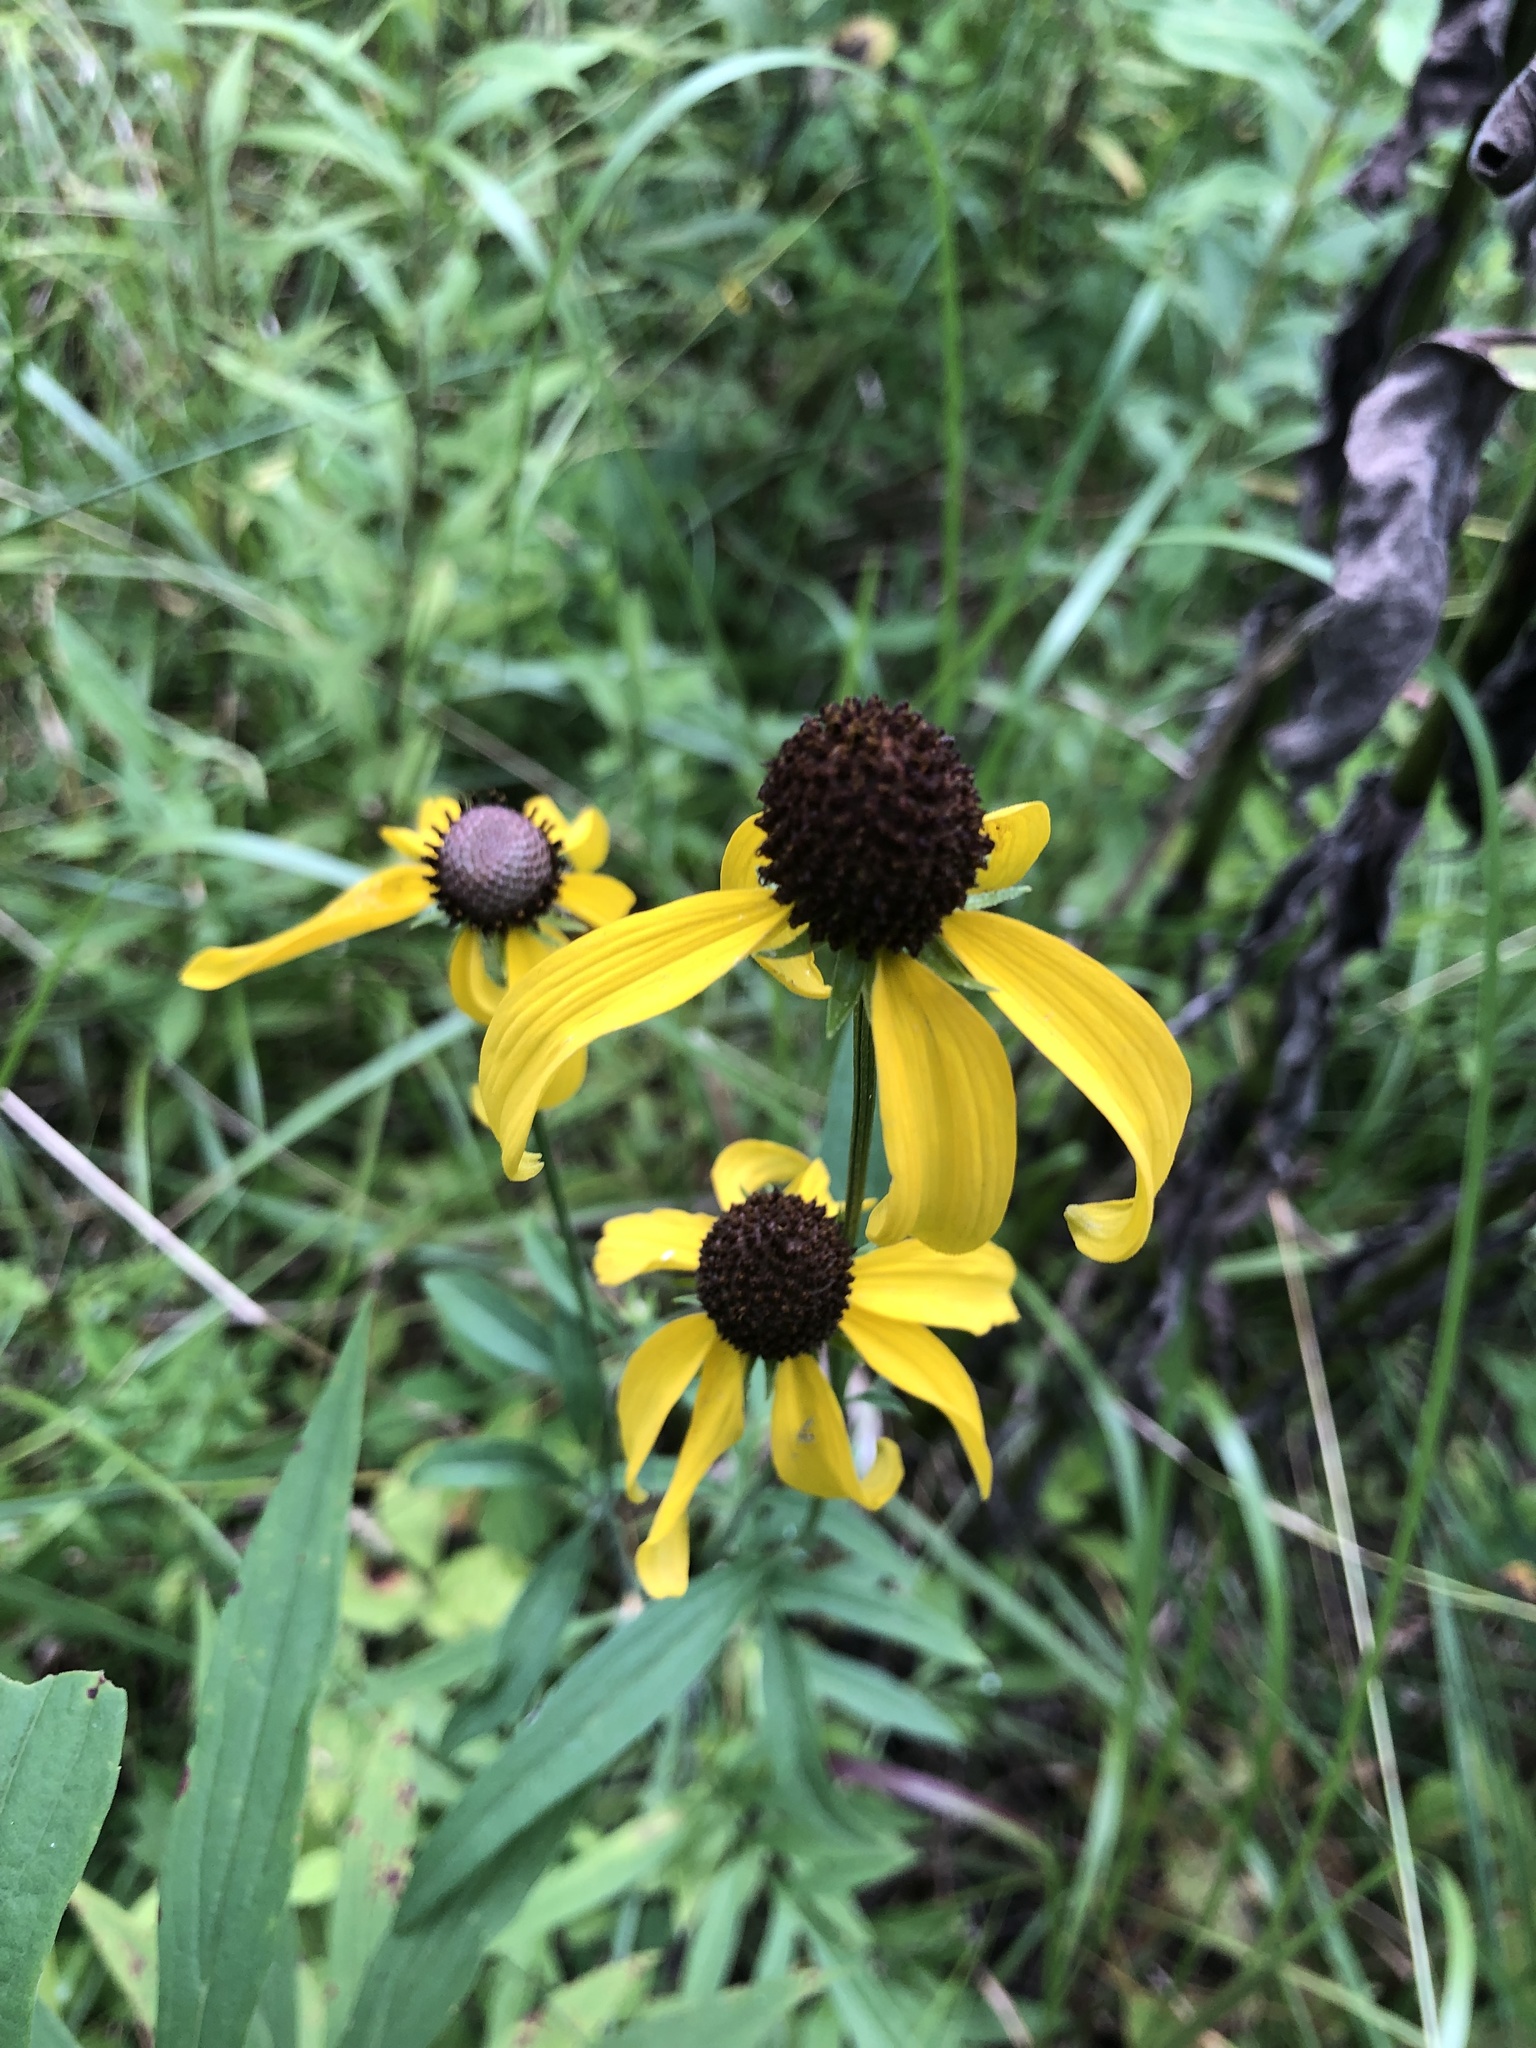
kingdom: Plantae
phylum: Tracheophyta
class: Magnoliopsida
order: Asterales
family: Asteraceae
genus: Ratibida
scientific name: Ratibida pinnata
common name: Drooping prairie-coneflower
